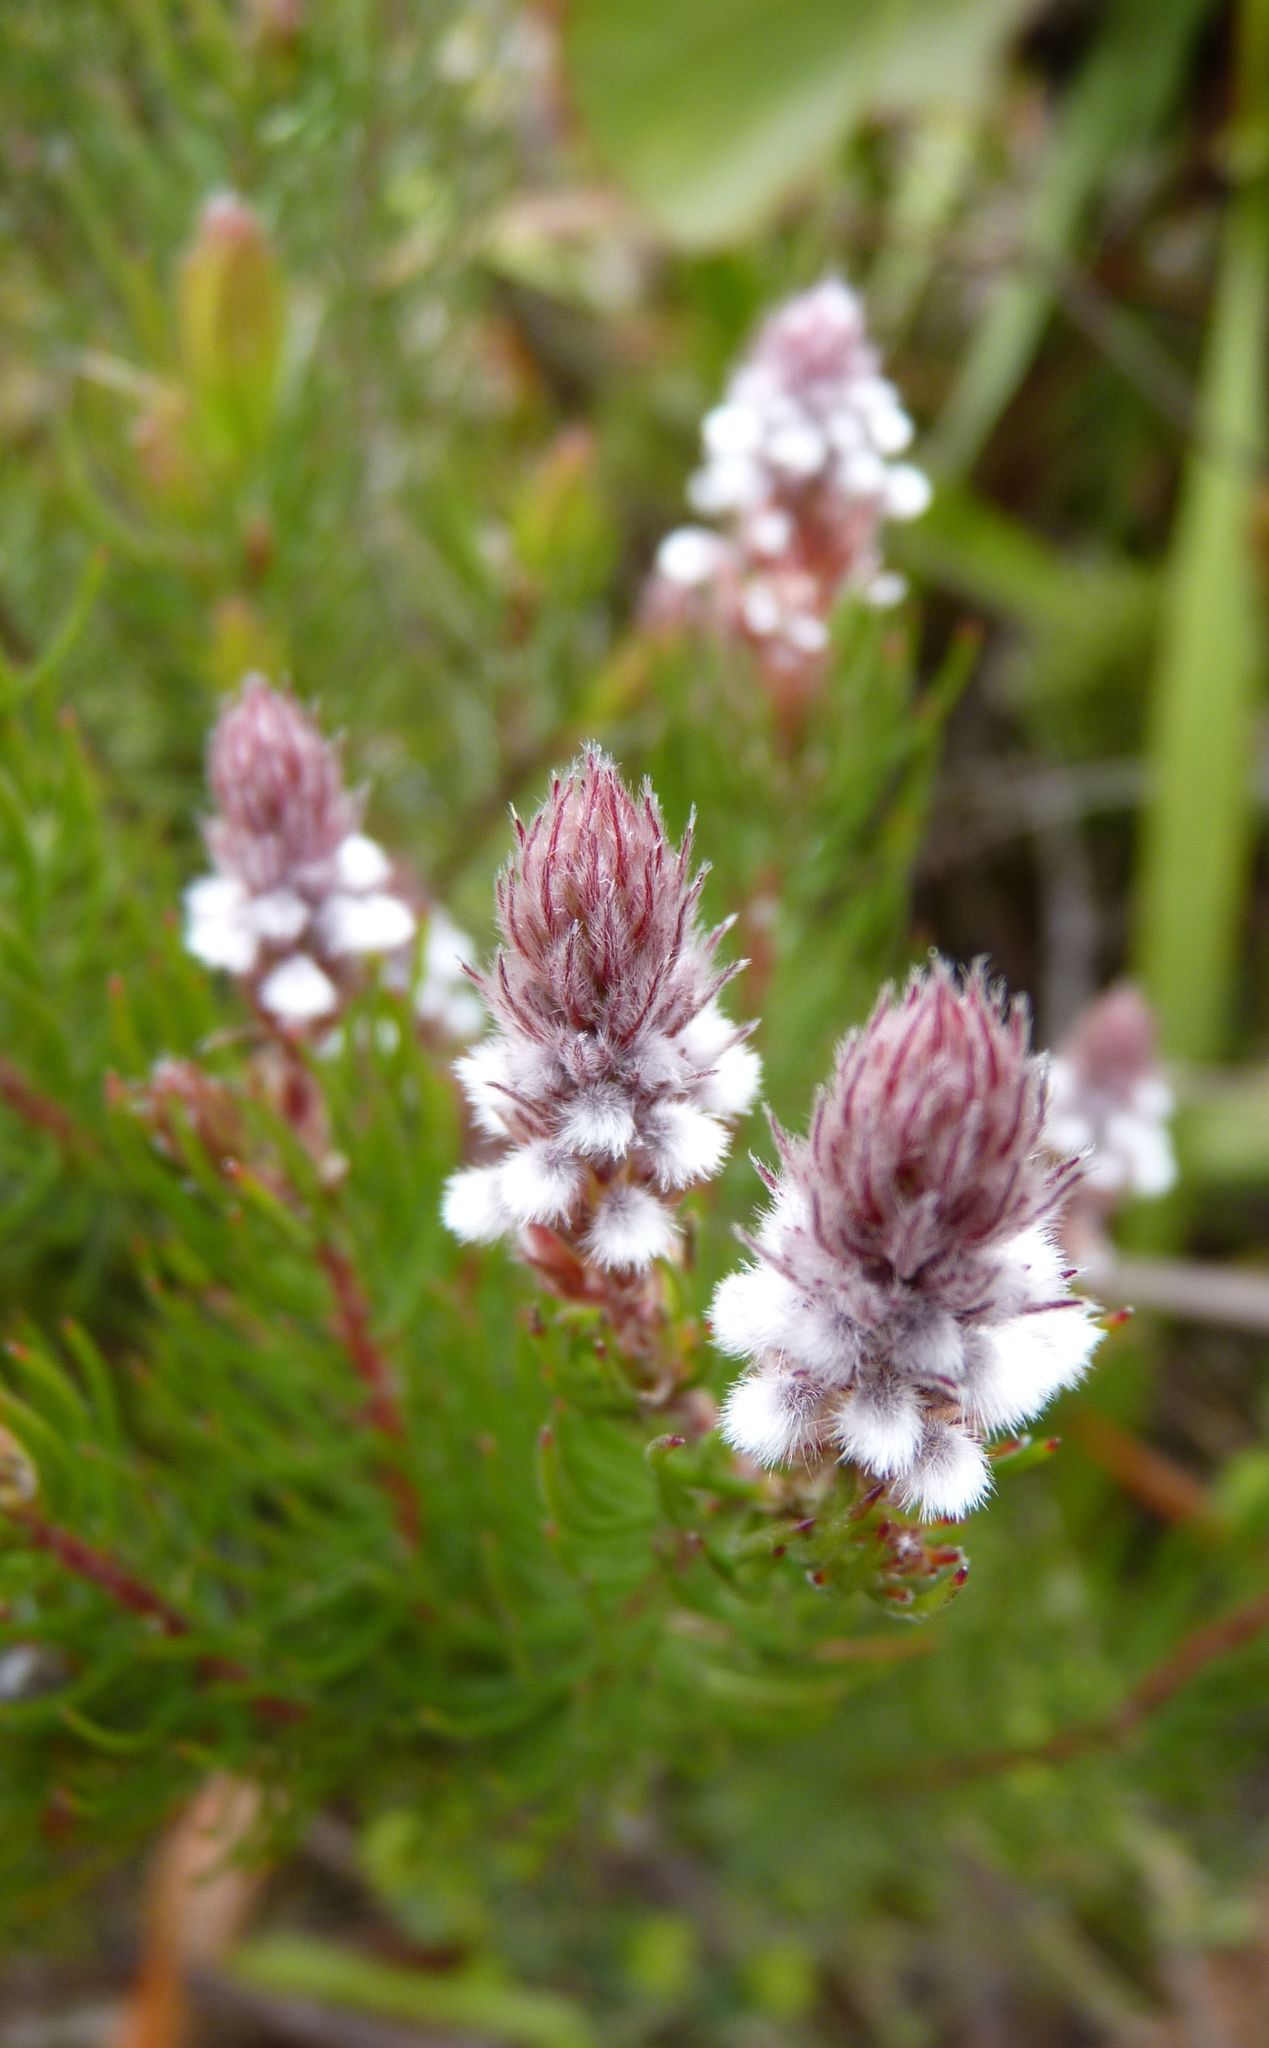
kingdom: Plantae
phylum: Tracheophyta
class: Magnoliopsida
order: Proteales
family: Proteaceae
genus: Spatalla
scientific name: Spatalla parilis
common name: Spike spoon
